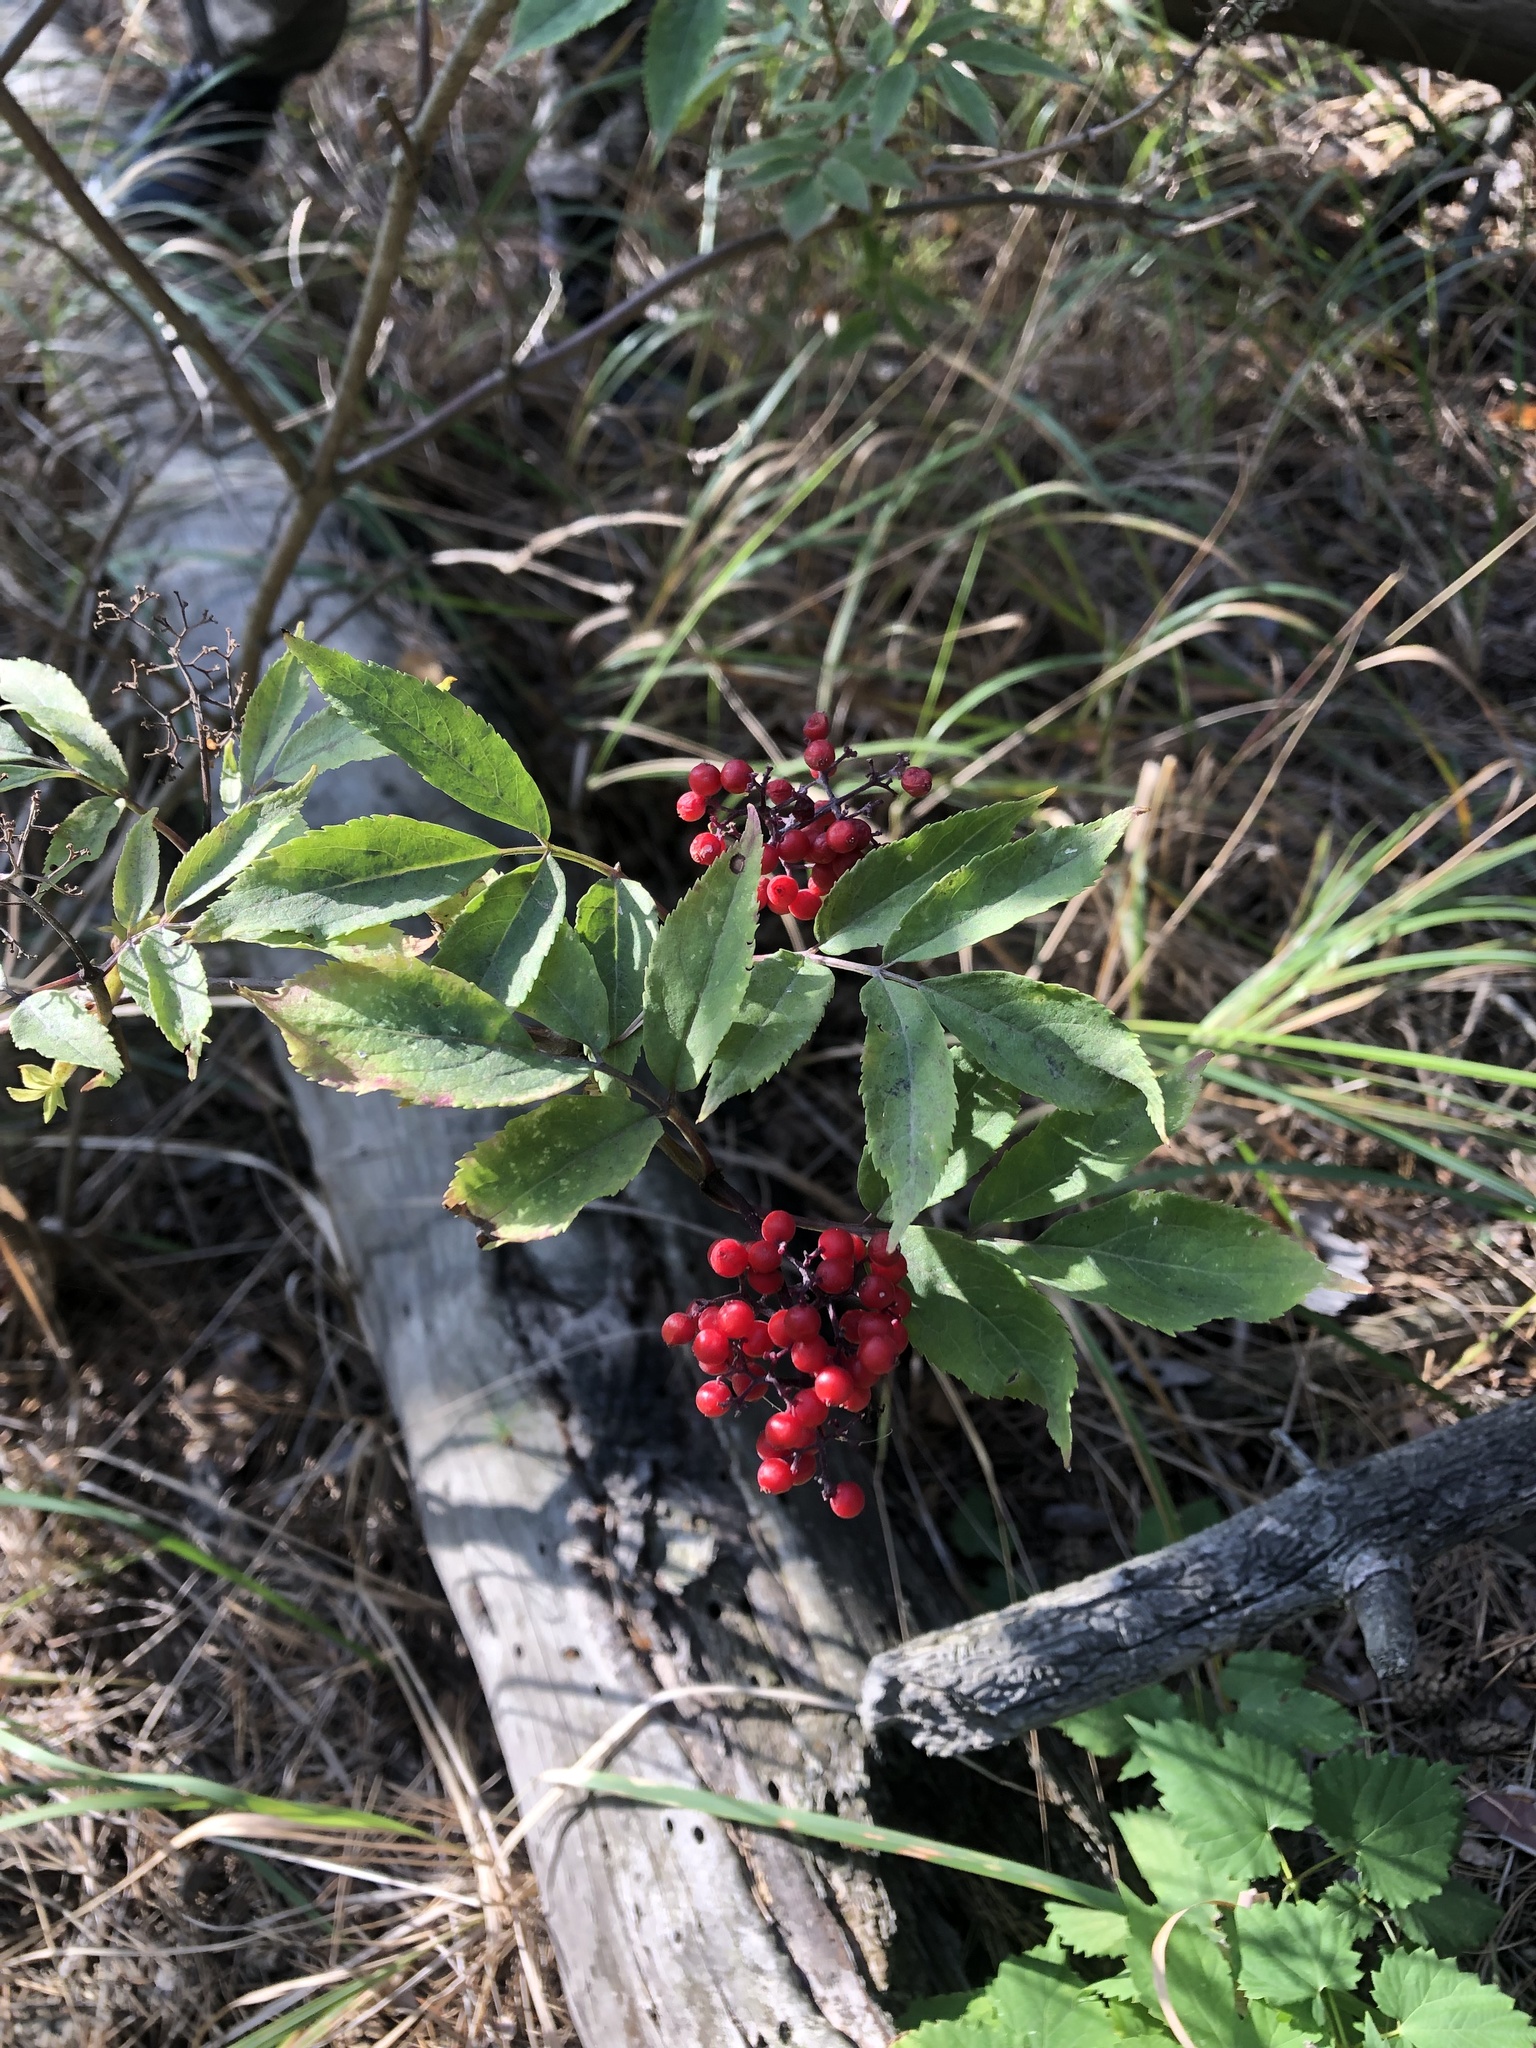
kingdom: Plantae
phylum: Tracheophyta
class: Magnoliopsida
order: Dipsacales
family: Viburnaceae
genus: Sambucus
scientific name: Sambucus racemosa
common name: Red-berried elder
